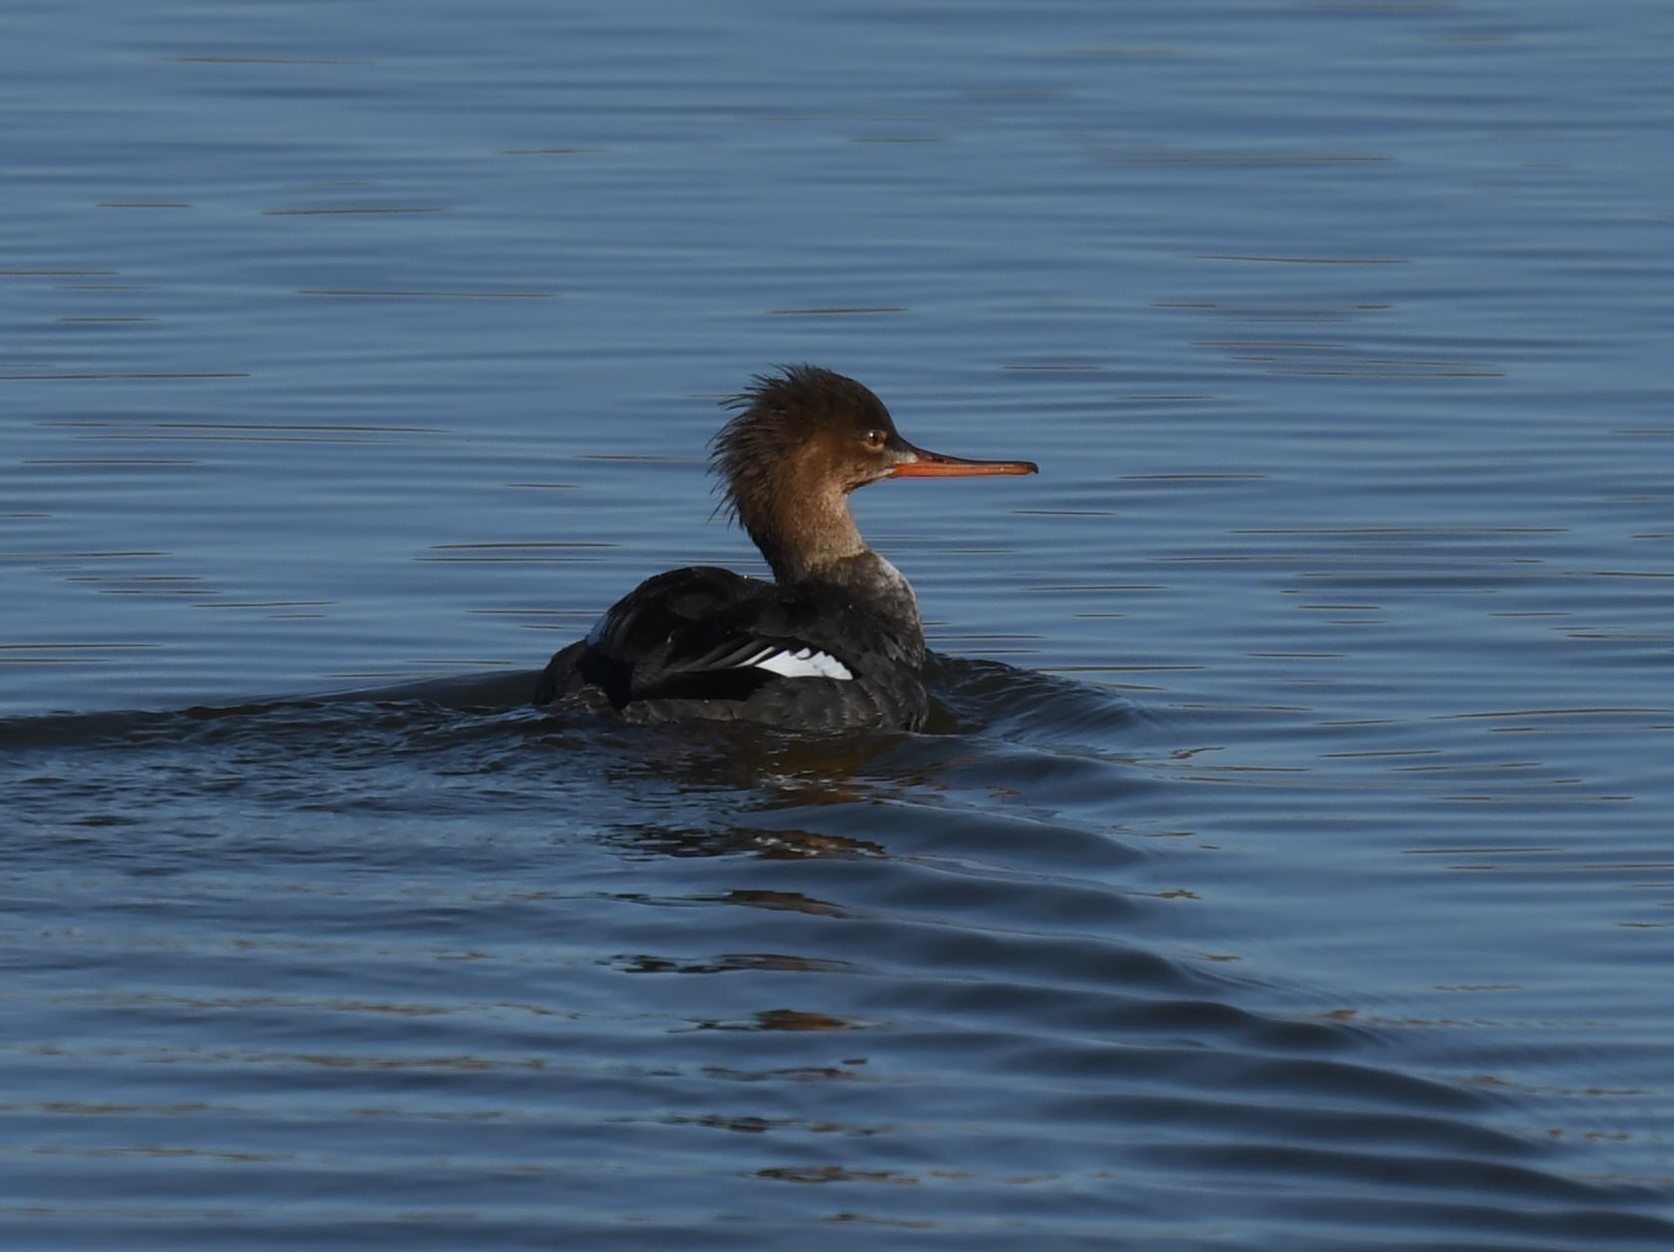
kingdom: Animalia
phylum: Chordata
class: Aves
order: Anseriformes
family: Anatidae
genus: Mergus
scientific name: Mergus serrator
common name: Red-breasted merganser
